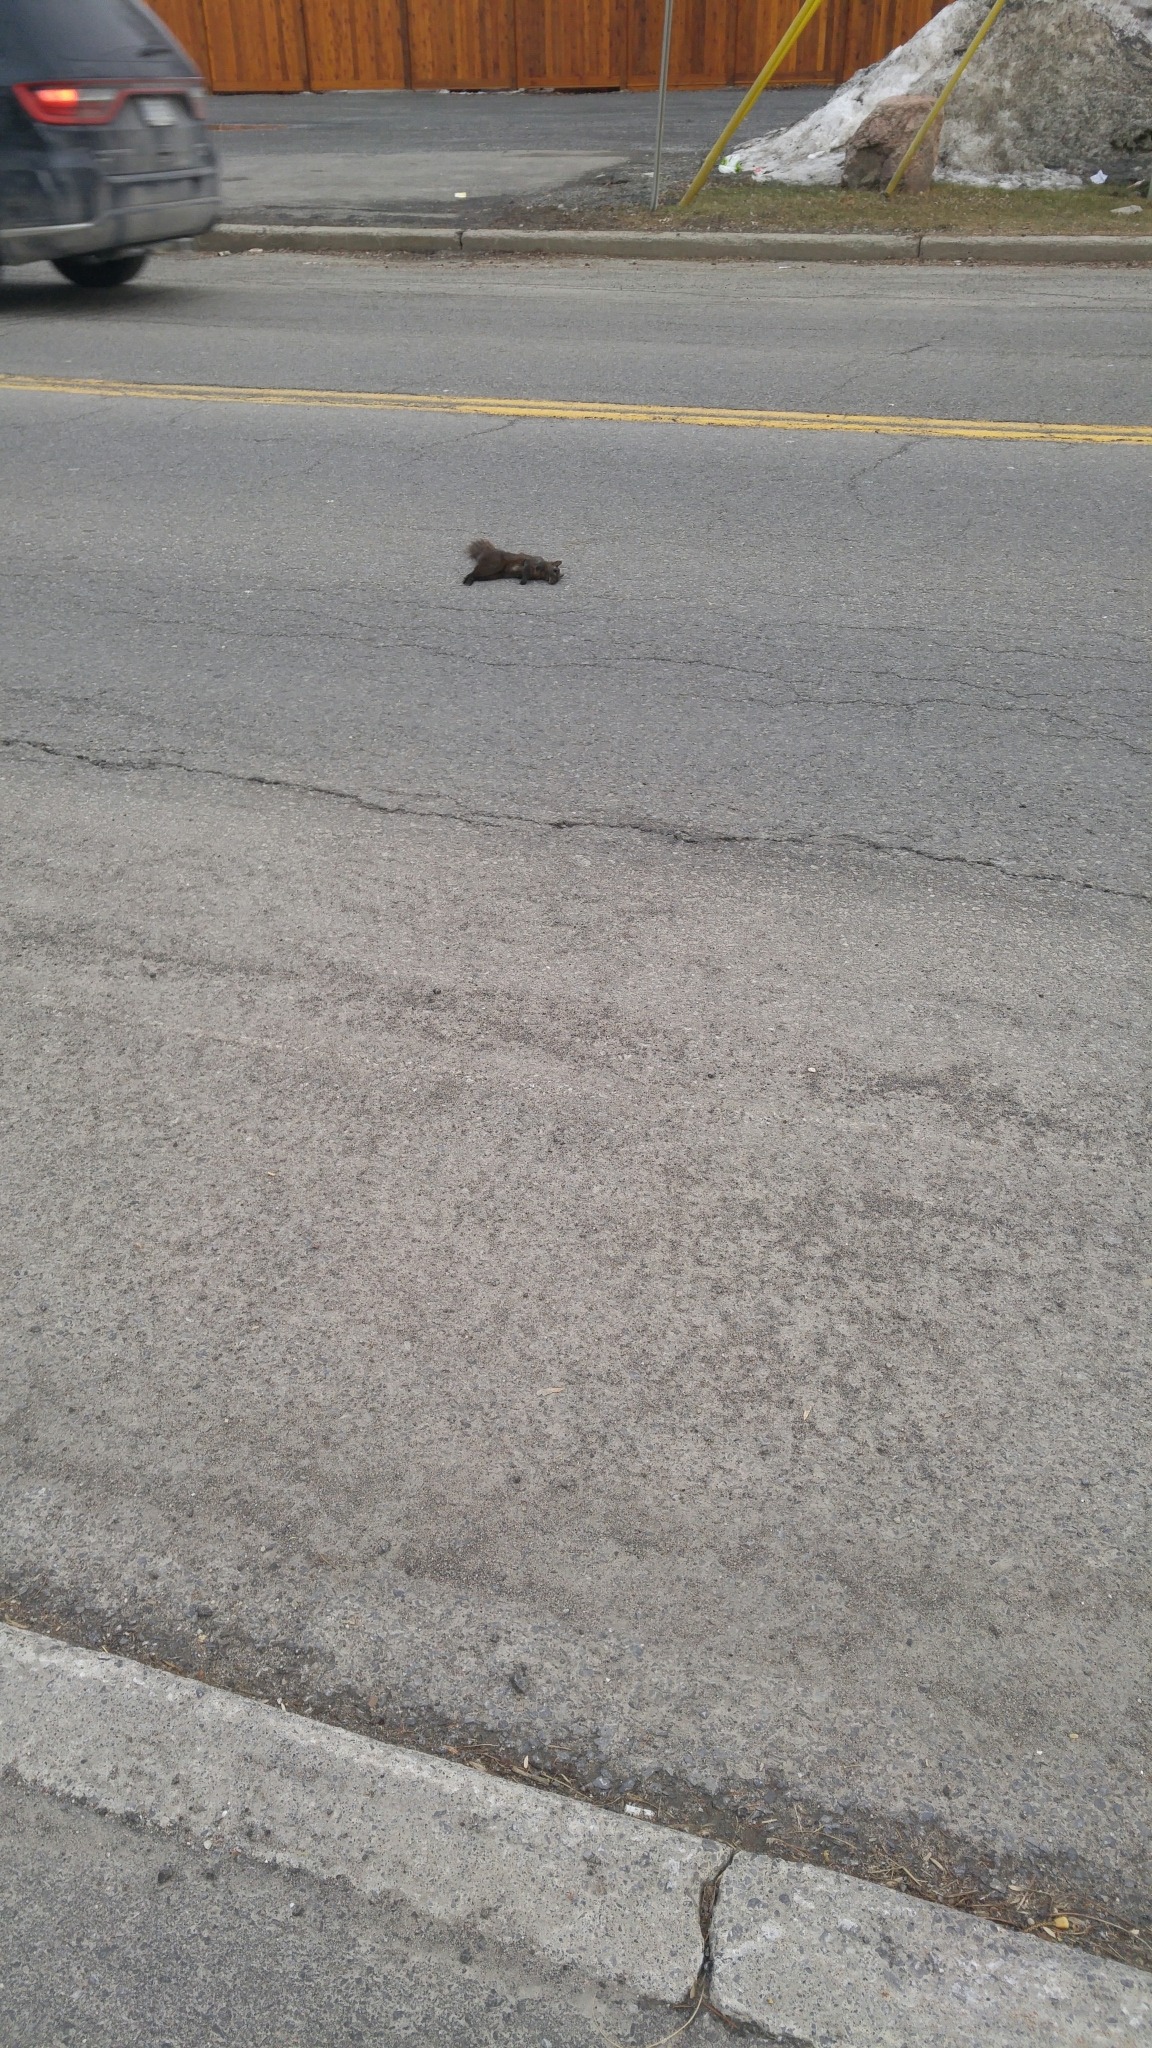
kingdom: Animalia
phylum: Chordata
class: Mammalia
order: Rodentia
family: Sciuridae
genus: Sciurus
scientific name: Sciurus carolinensis
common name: Eastern gray squirrel
